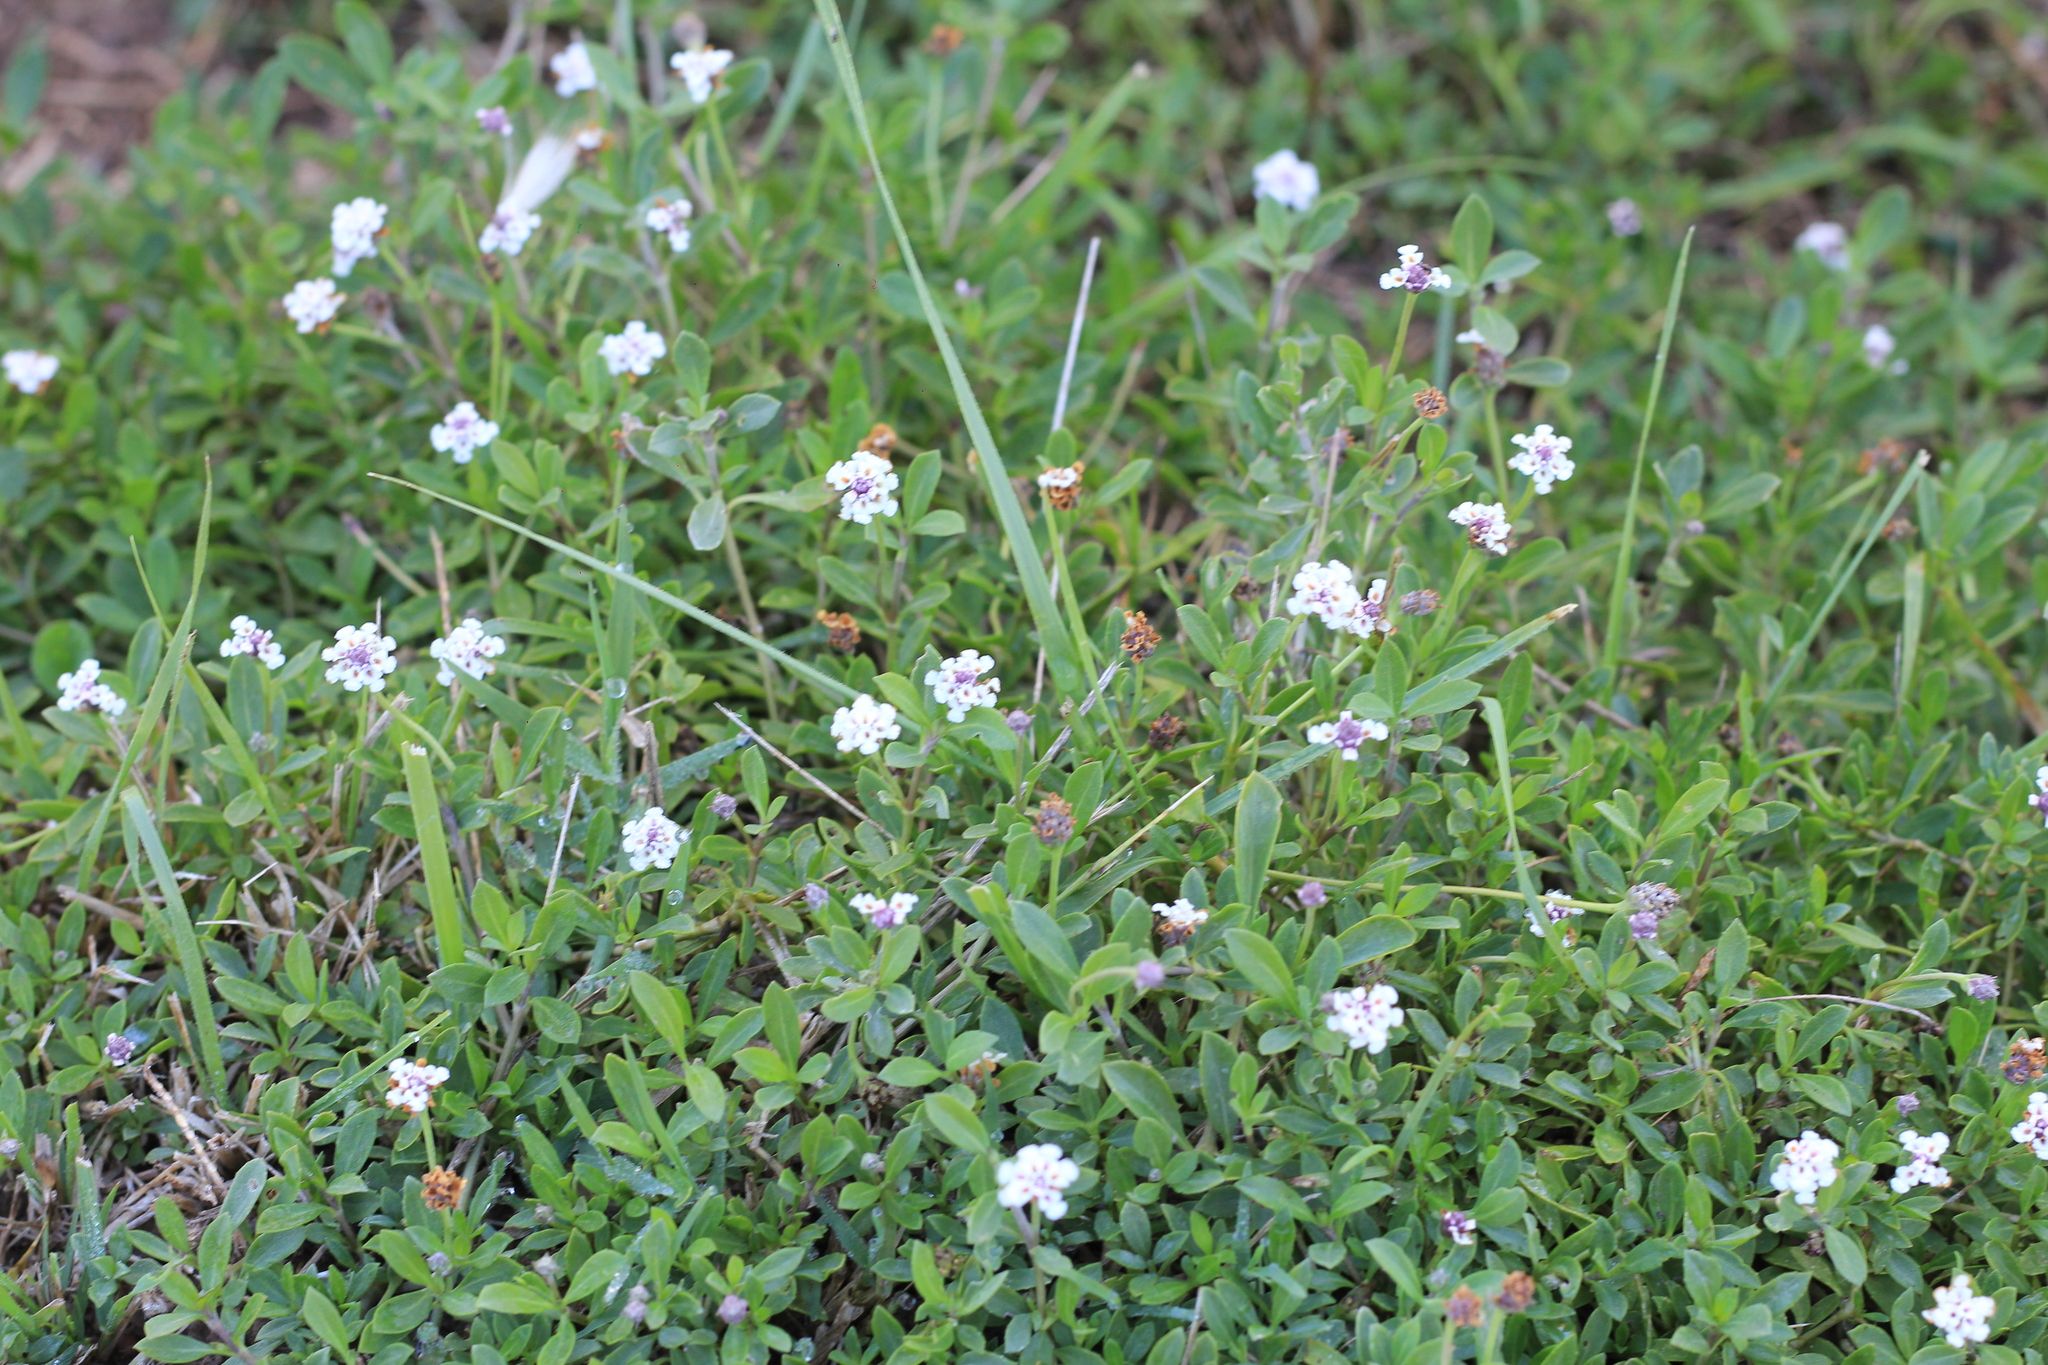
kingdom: Plantae
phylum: Tracheophyta
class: Magnoliopsida
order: Lamiales
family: Verbenaceae
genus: Phyla
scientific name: Phyla nodiflora
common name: Frogfruit
